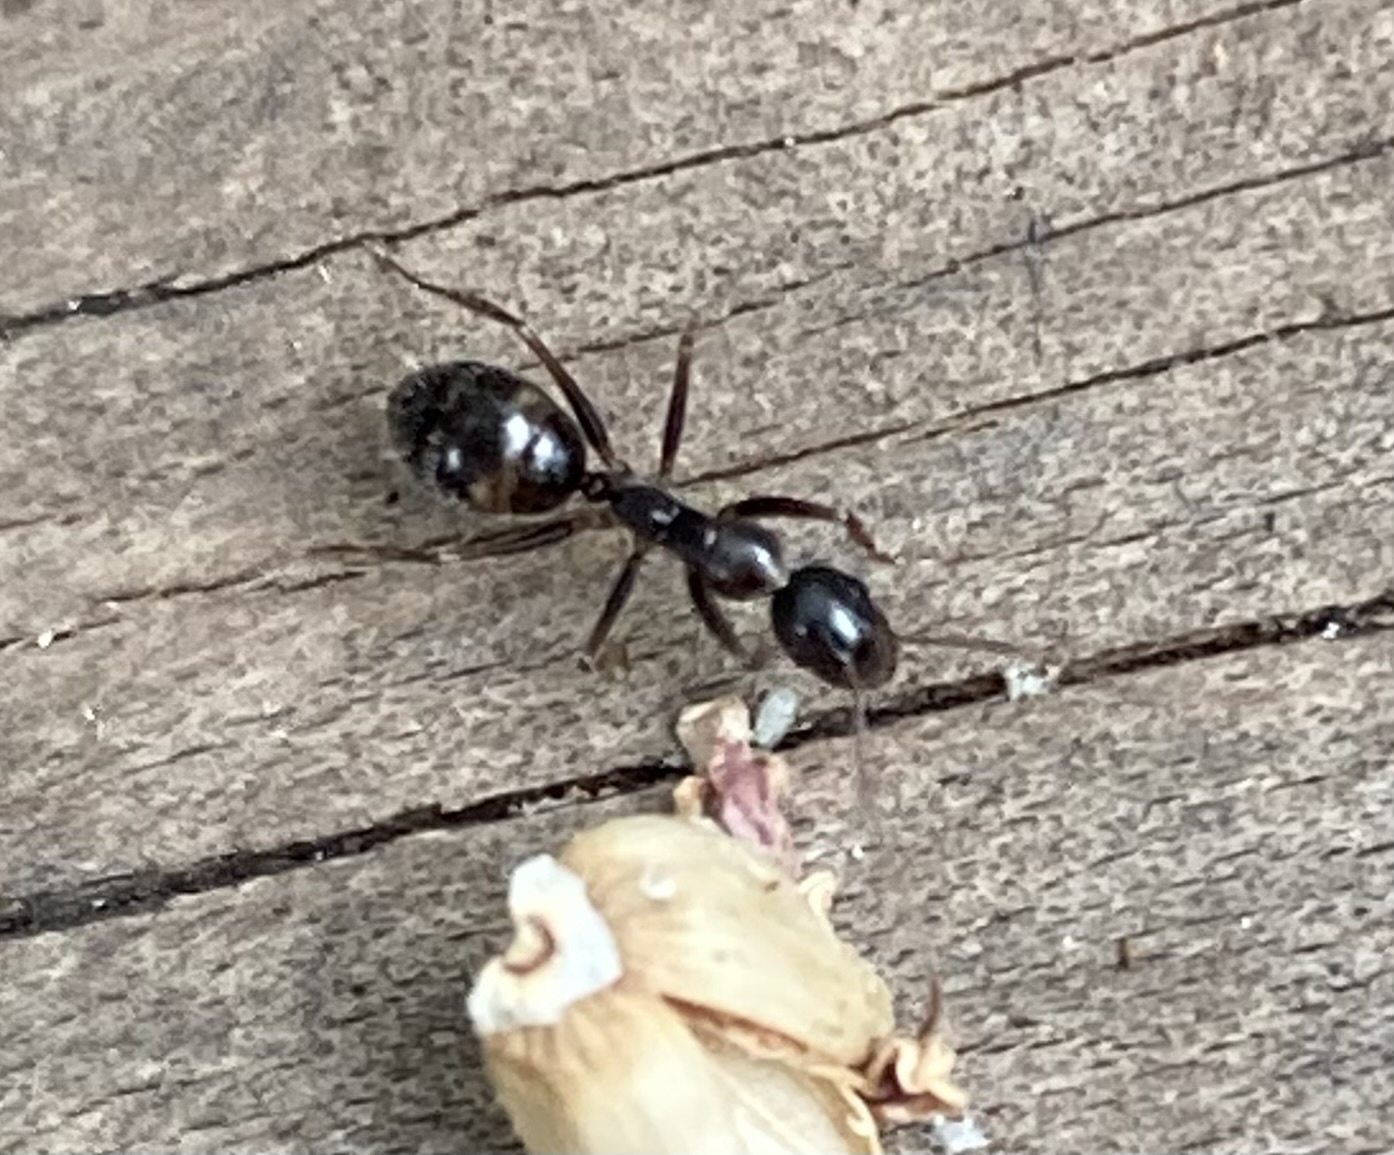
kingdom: Animalia
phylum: Arthropoda
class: Insecta
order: Hymenoptera
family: Formicidae
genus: Camponotus
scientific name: Camponotus sexguttatus
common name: Neotropical carpenter ant
